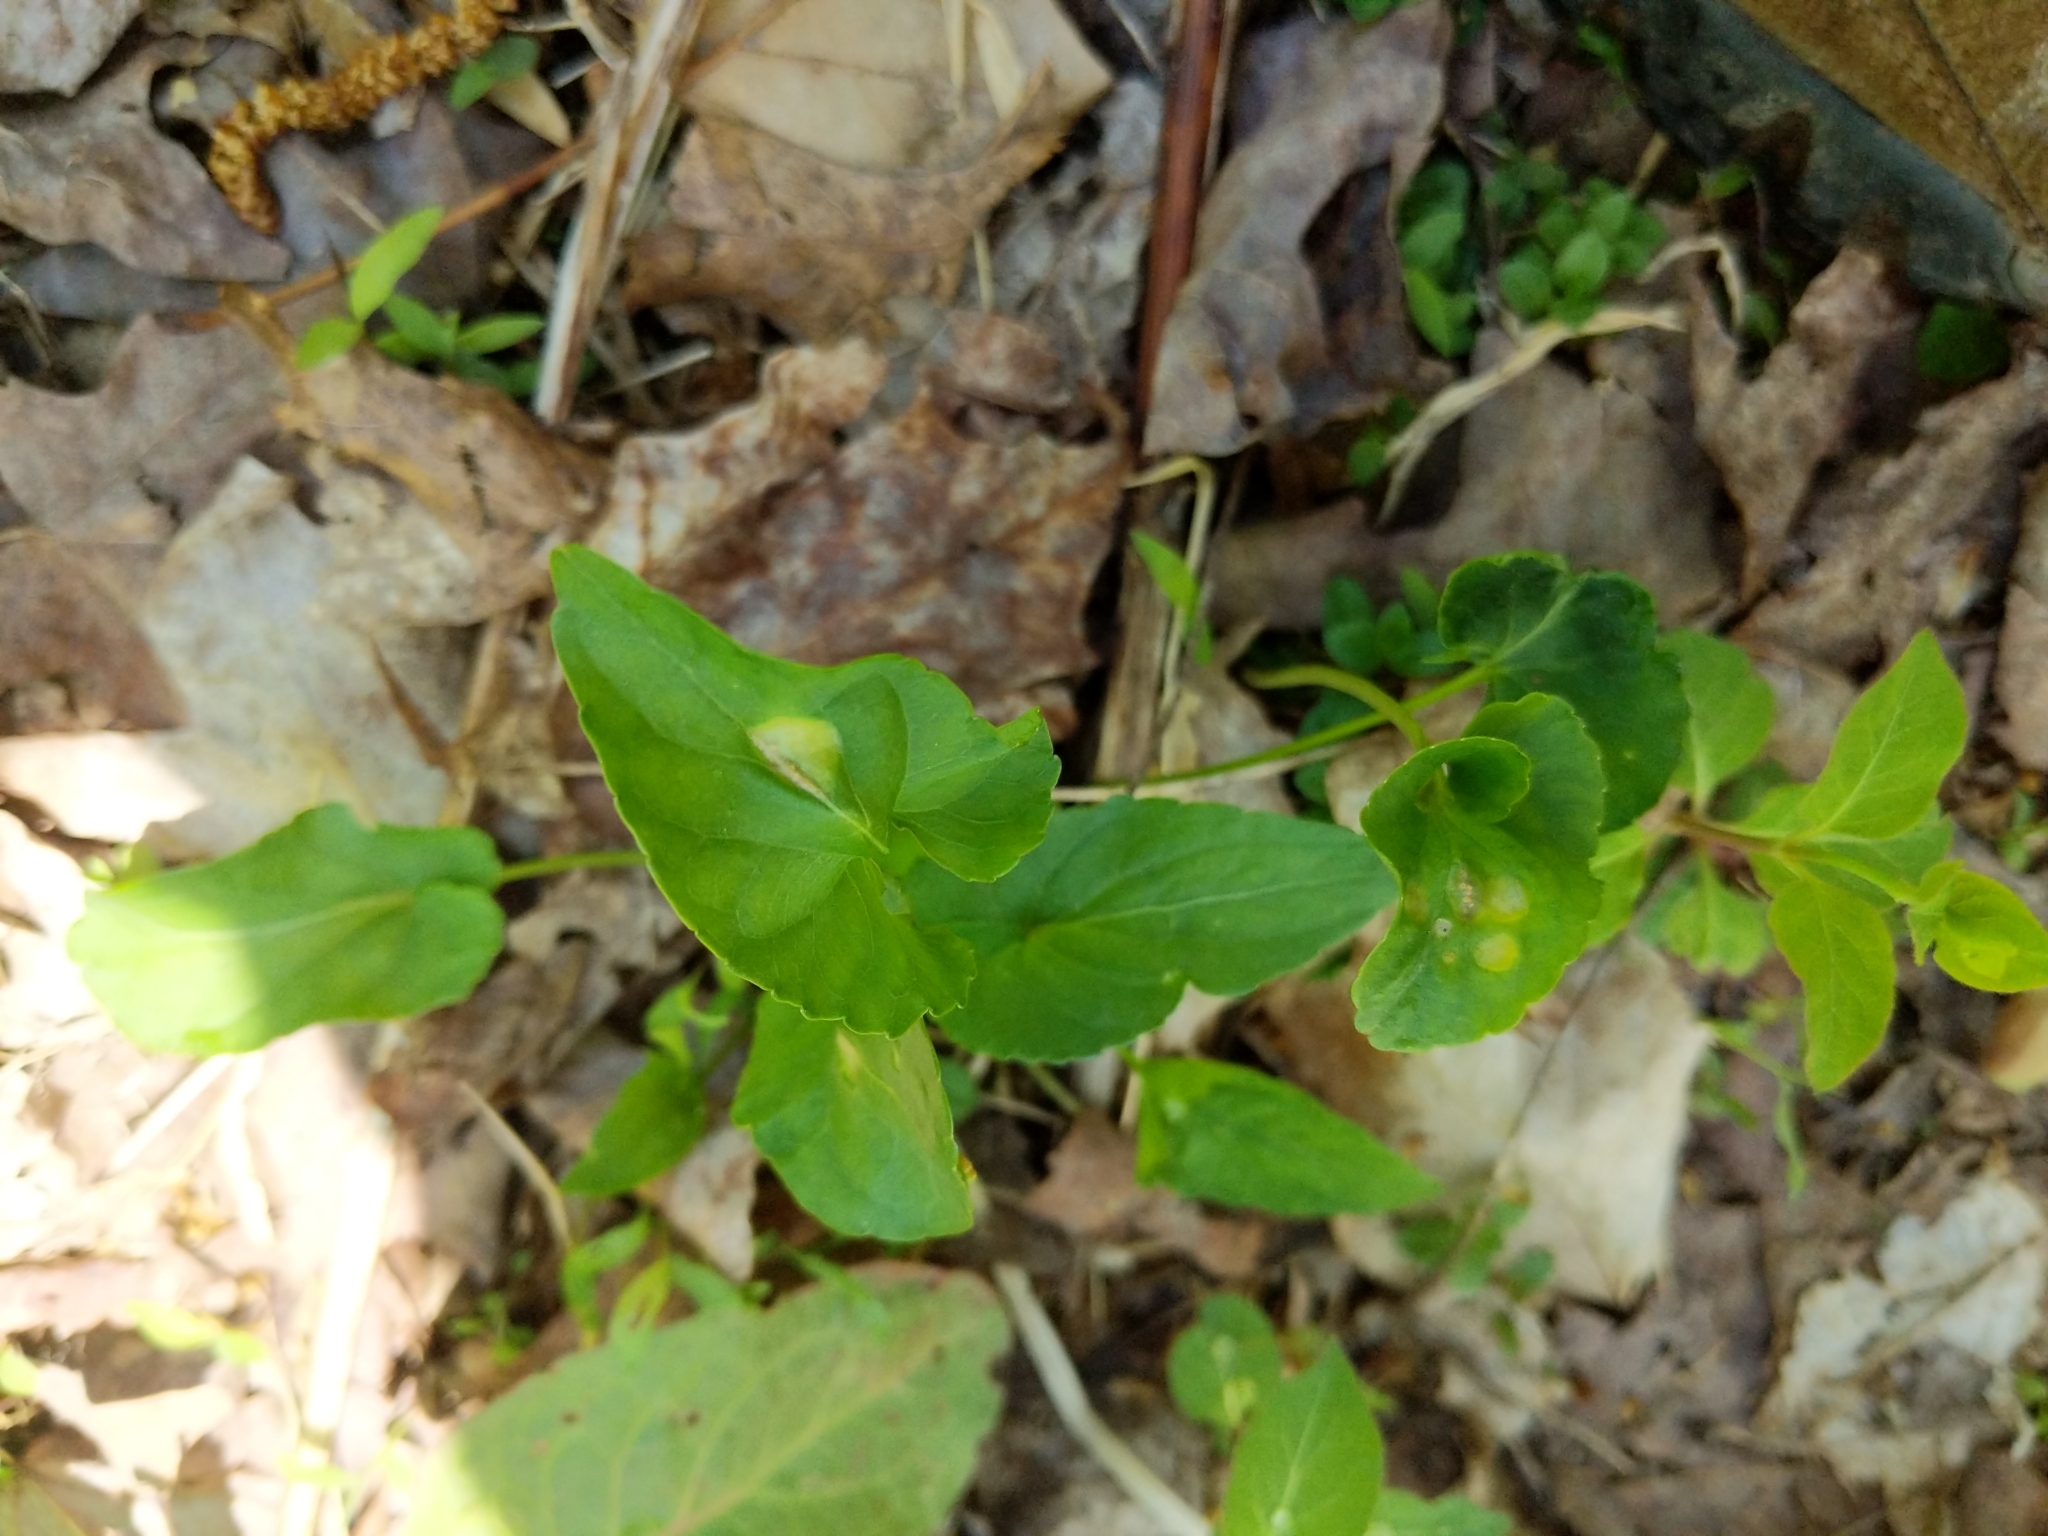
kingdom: Fungi
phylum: Basidiomycota
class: Pucciniomycetes
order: Pucciniales
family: Pucciniaceae
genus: Puccinia
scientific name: Puccinia violae
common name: Violet rust
